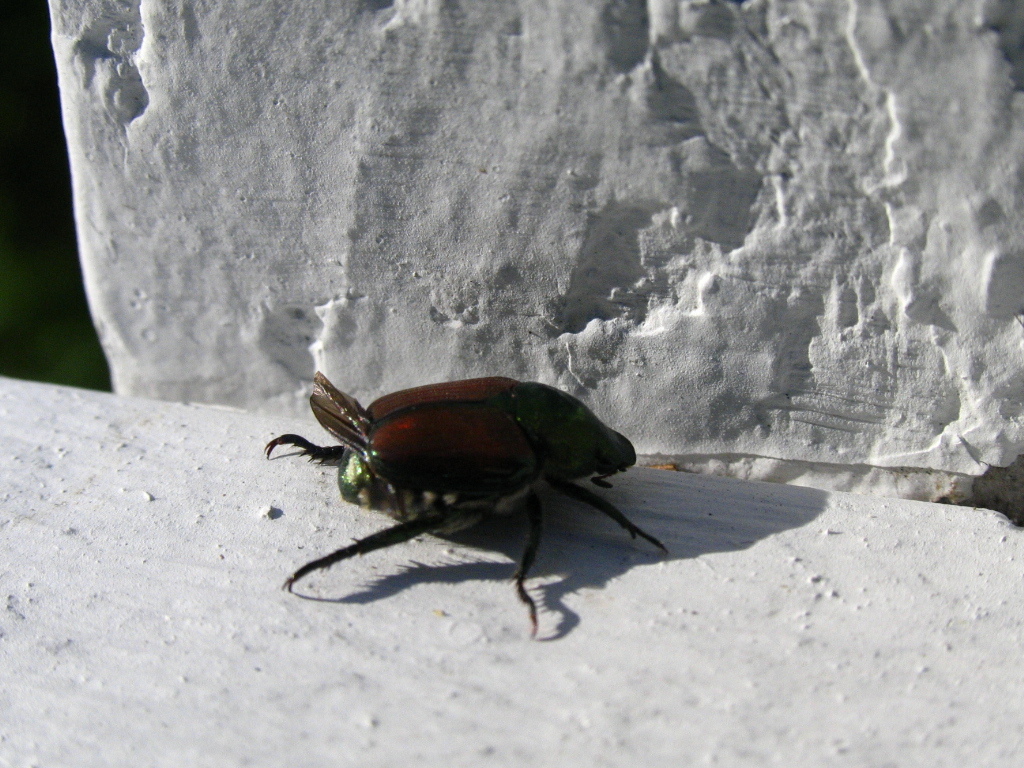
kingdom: Animalia
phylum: Arthropoda
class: Insecta
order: Coleoptera
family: Scarabaeidae
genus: Popillia
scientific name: Popillia japonica
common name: Japanese beetle
